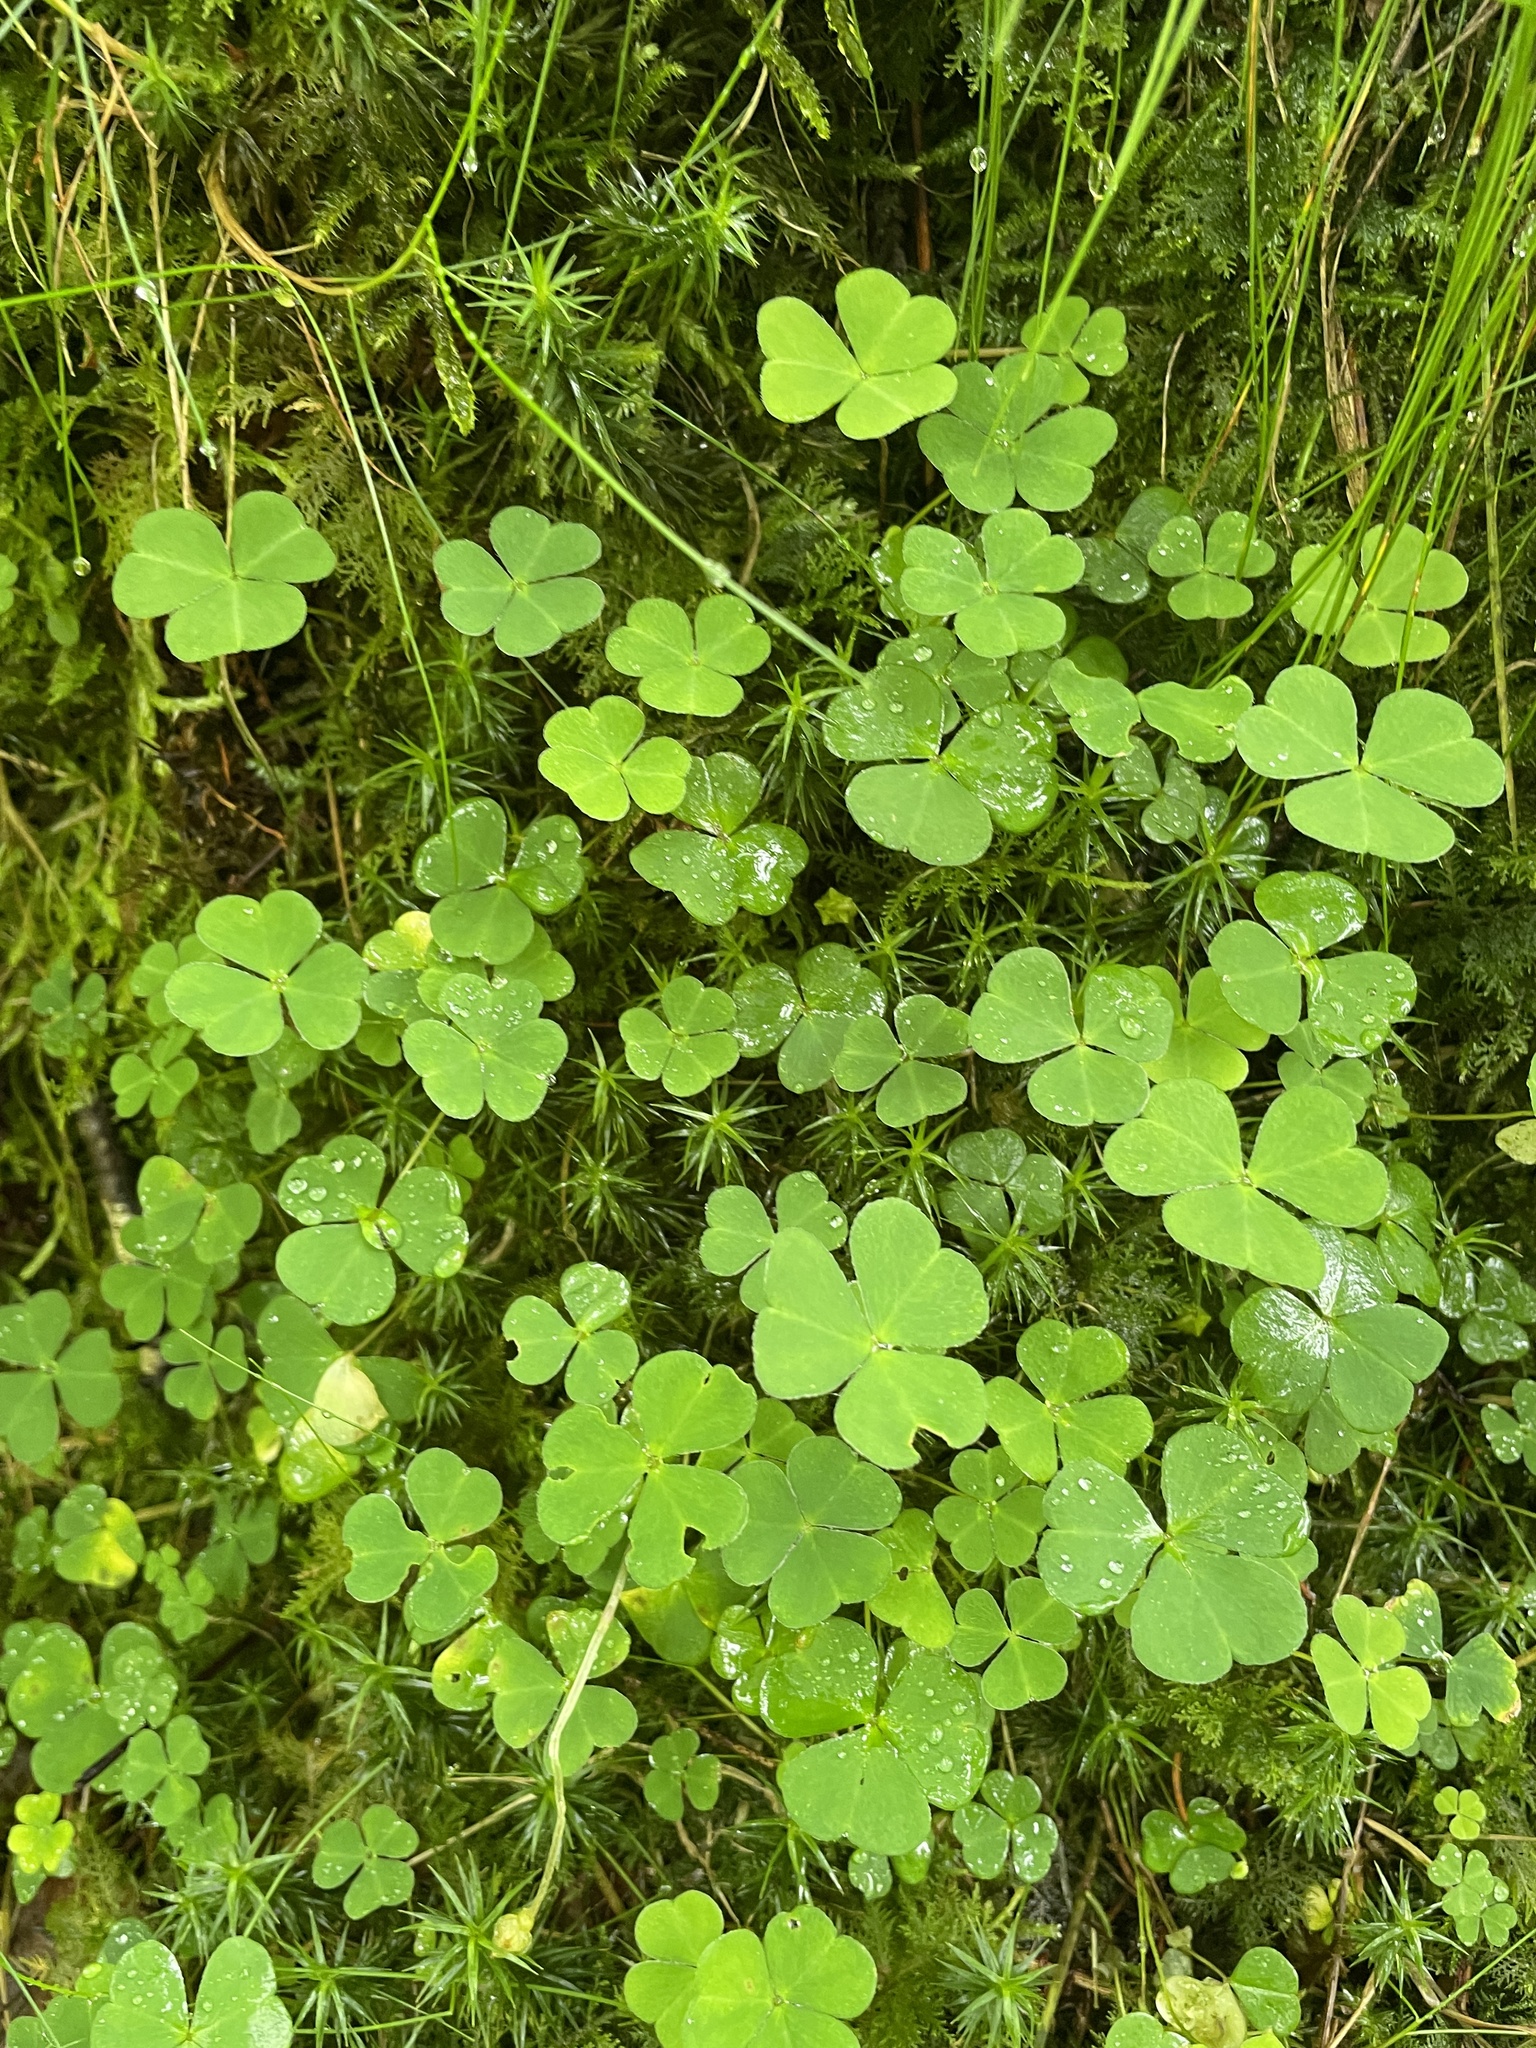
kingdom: Plantae
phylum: Tracheophyta
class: Magnoliopsida
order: Oxalidales
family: Oxalidaceae
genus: Oxalis
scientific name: Oxalis acetosella
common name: Wood-sorrel
